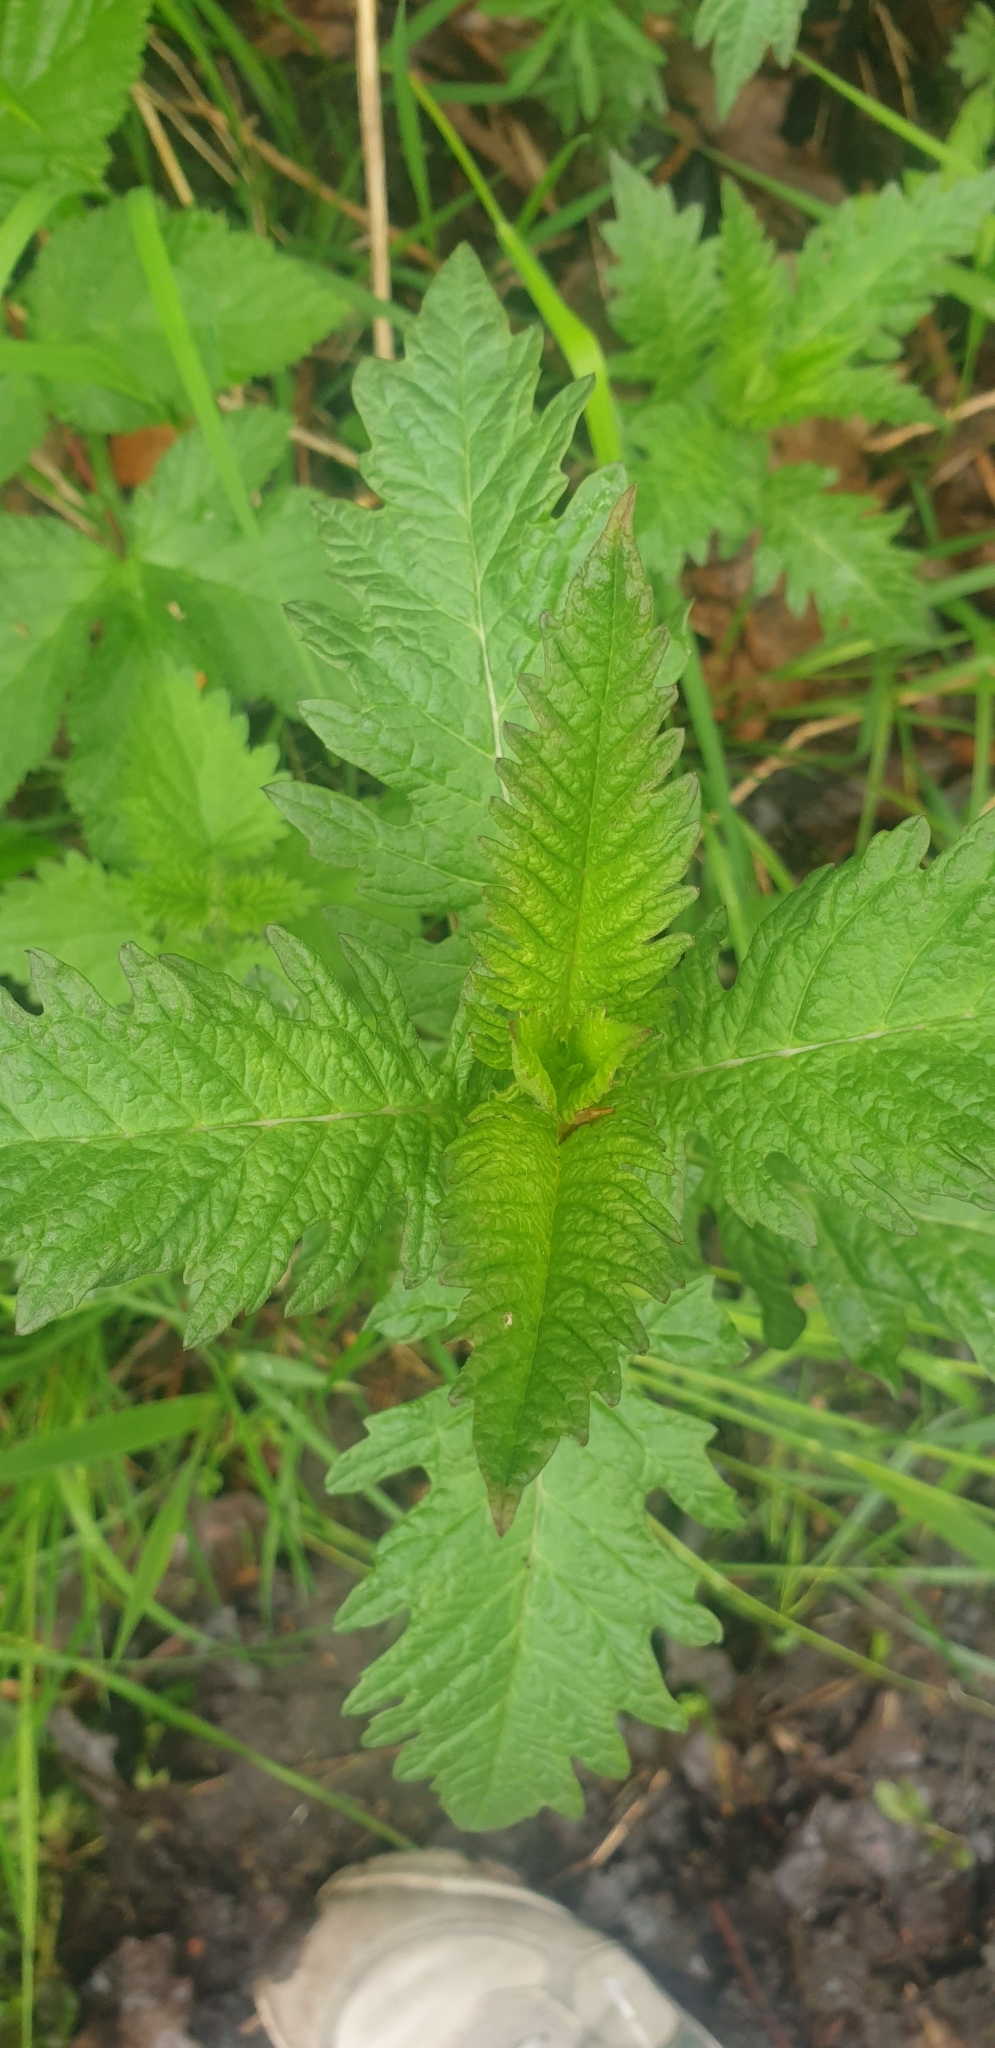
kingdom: Plantae
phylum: Tracheophyta
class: Magnoliopsida
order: Lamiales
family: Lamiaceae
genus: Lycopus
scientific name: Lycopus europaeus
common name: European bugleweed
